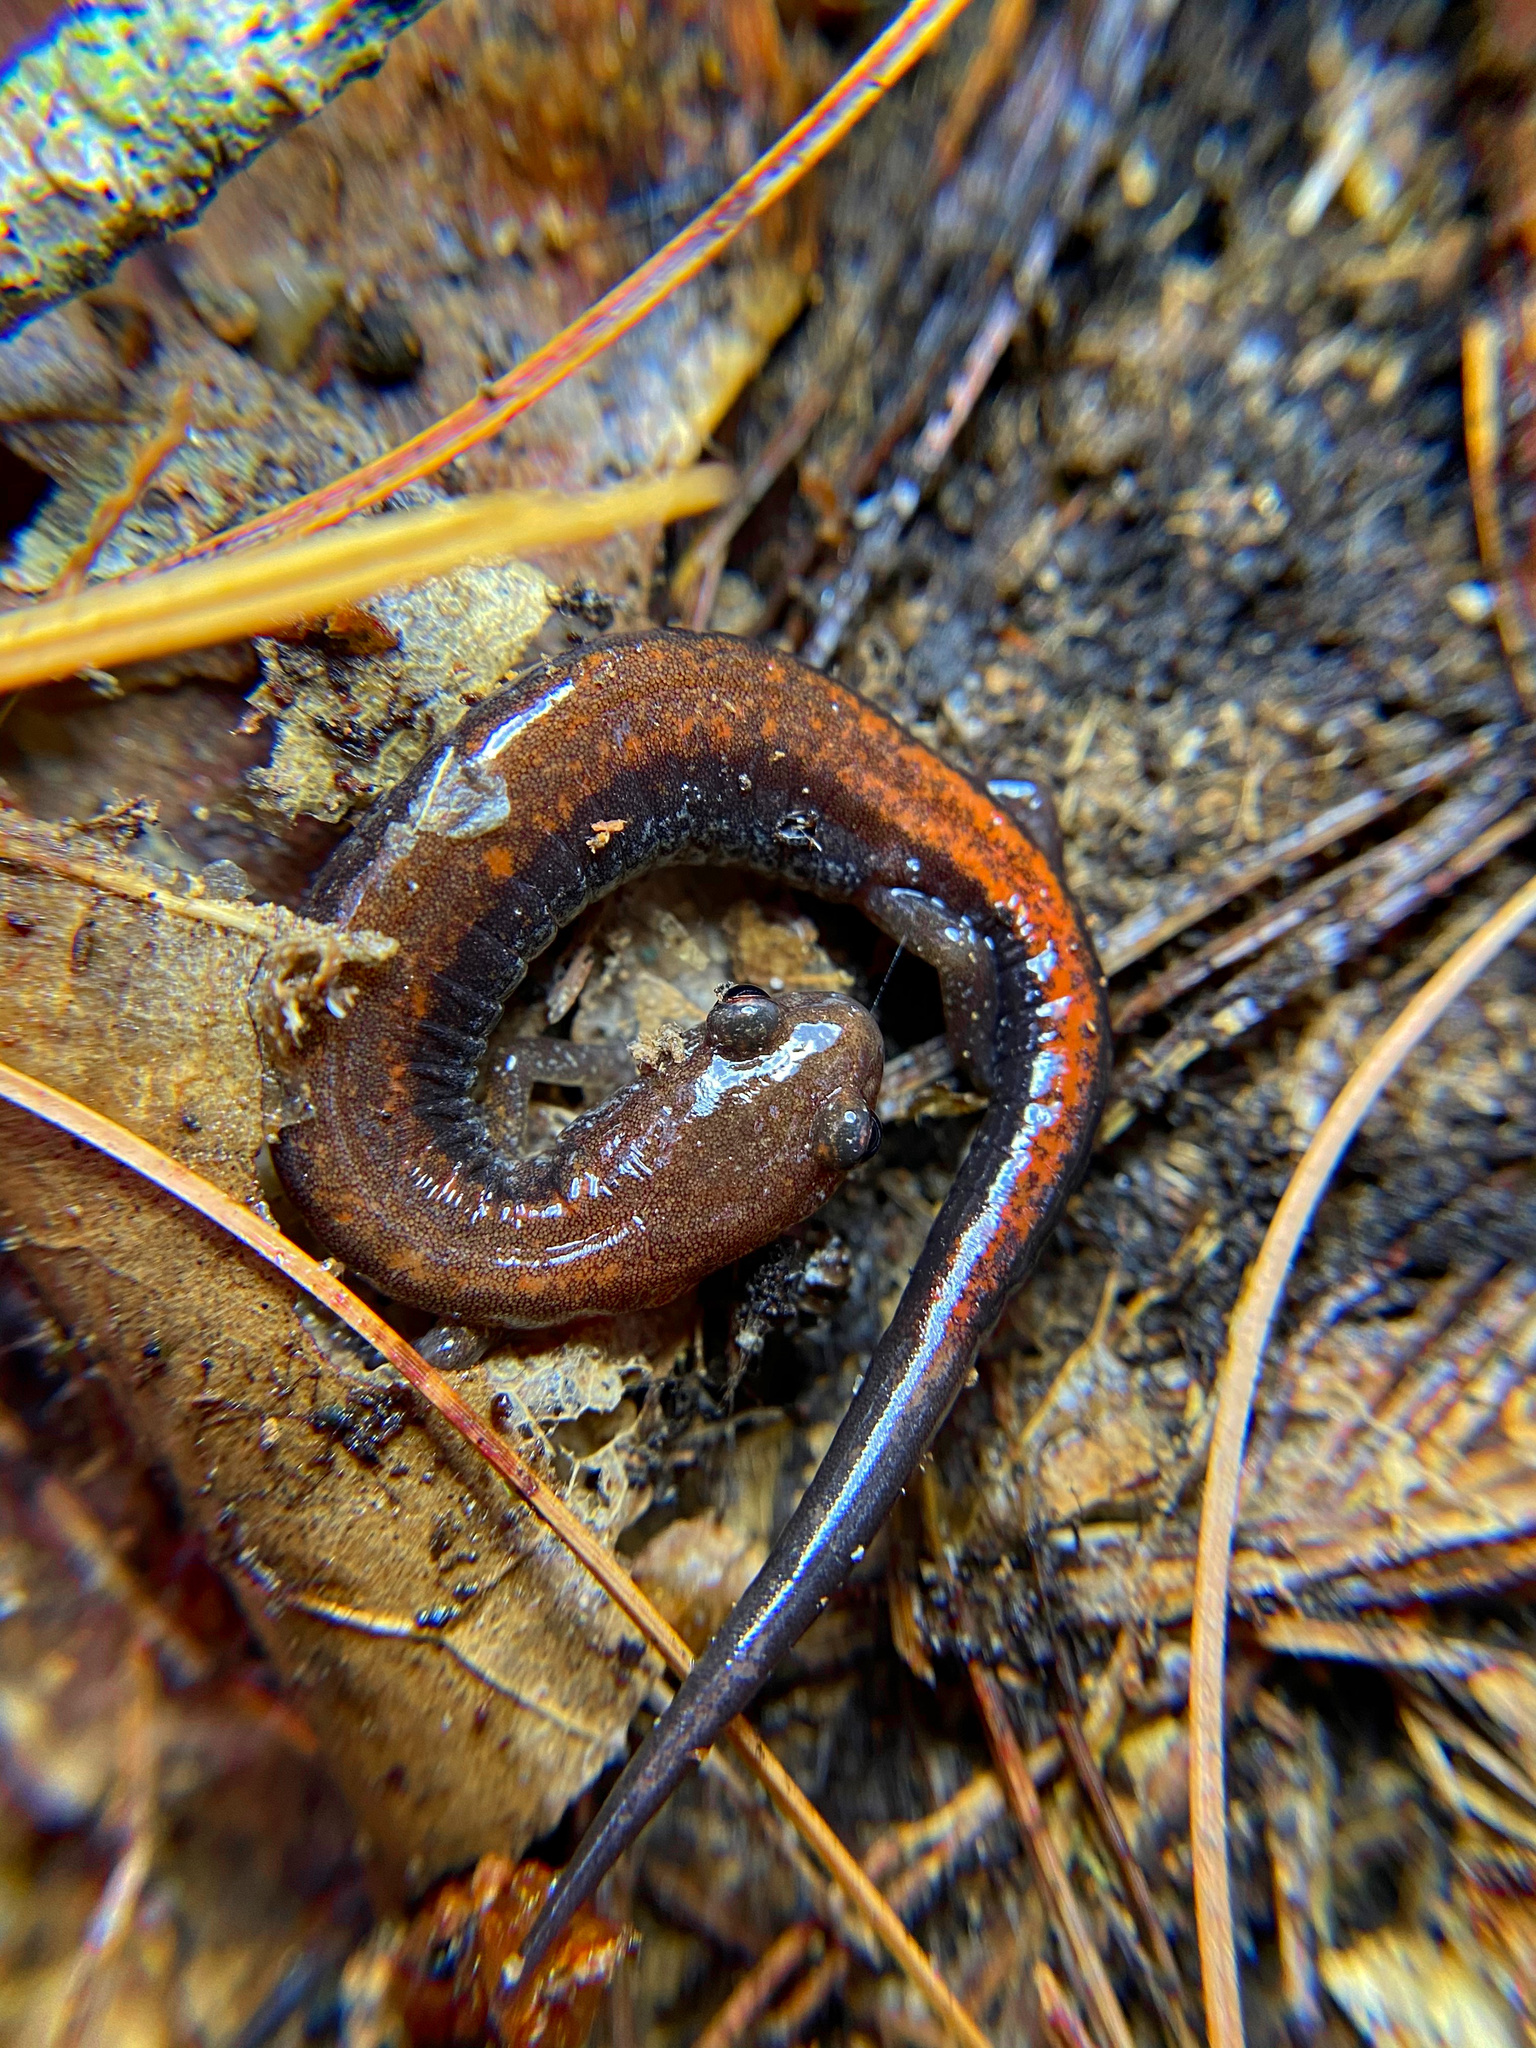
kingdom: Animalia
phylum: Chordata
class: Amphibia
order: Caudata
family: Plethodontidae
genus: Plethodon
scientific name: Plethodon cinereus
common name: Redback salamander
